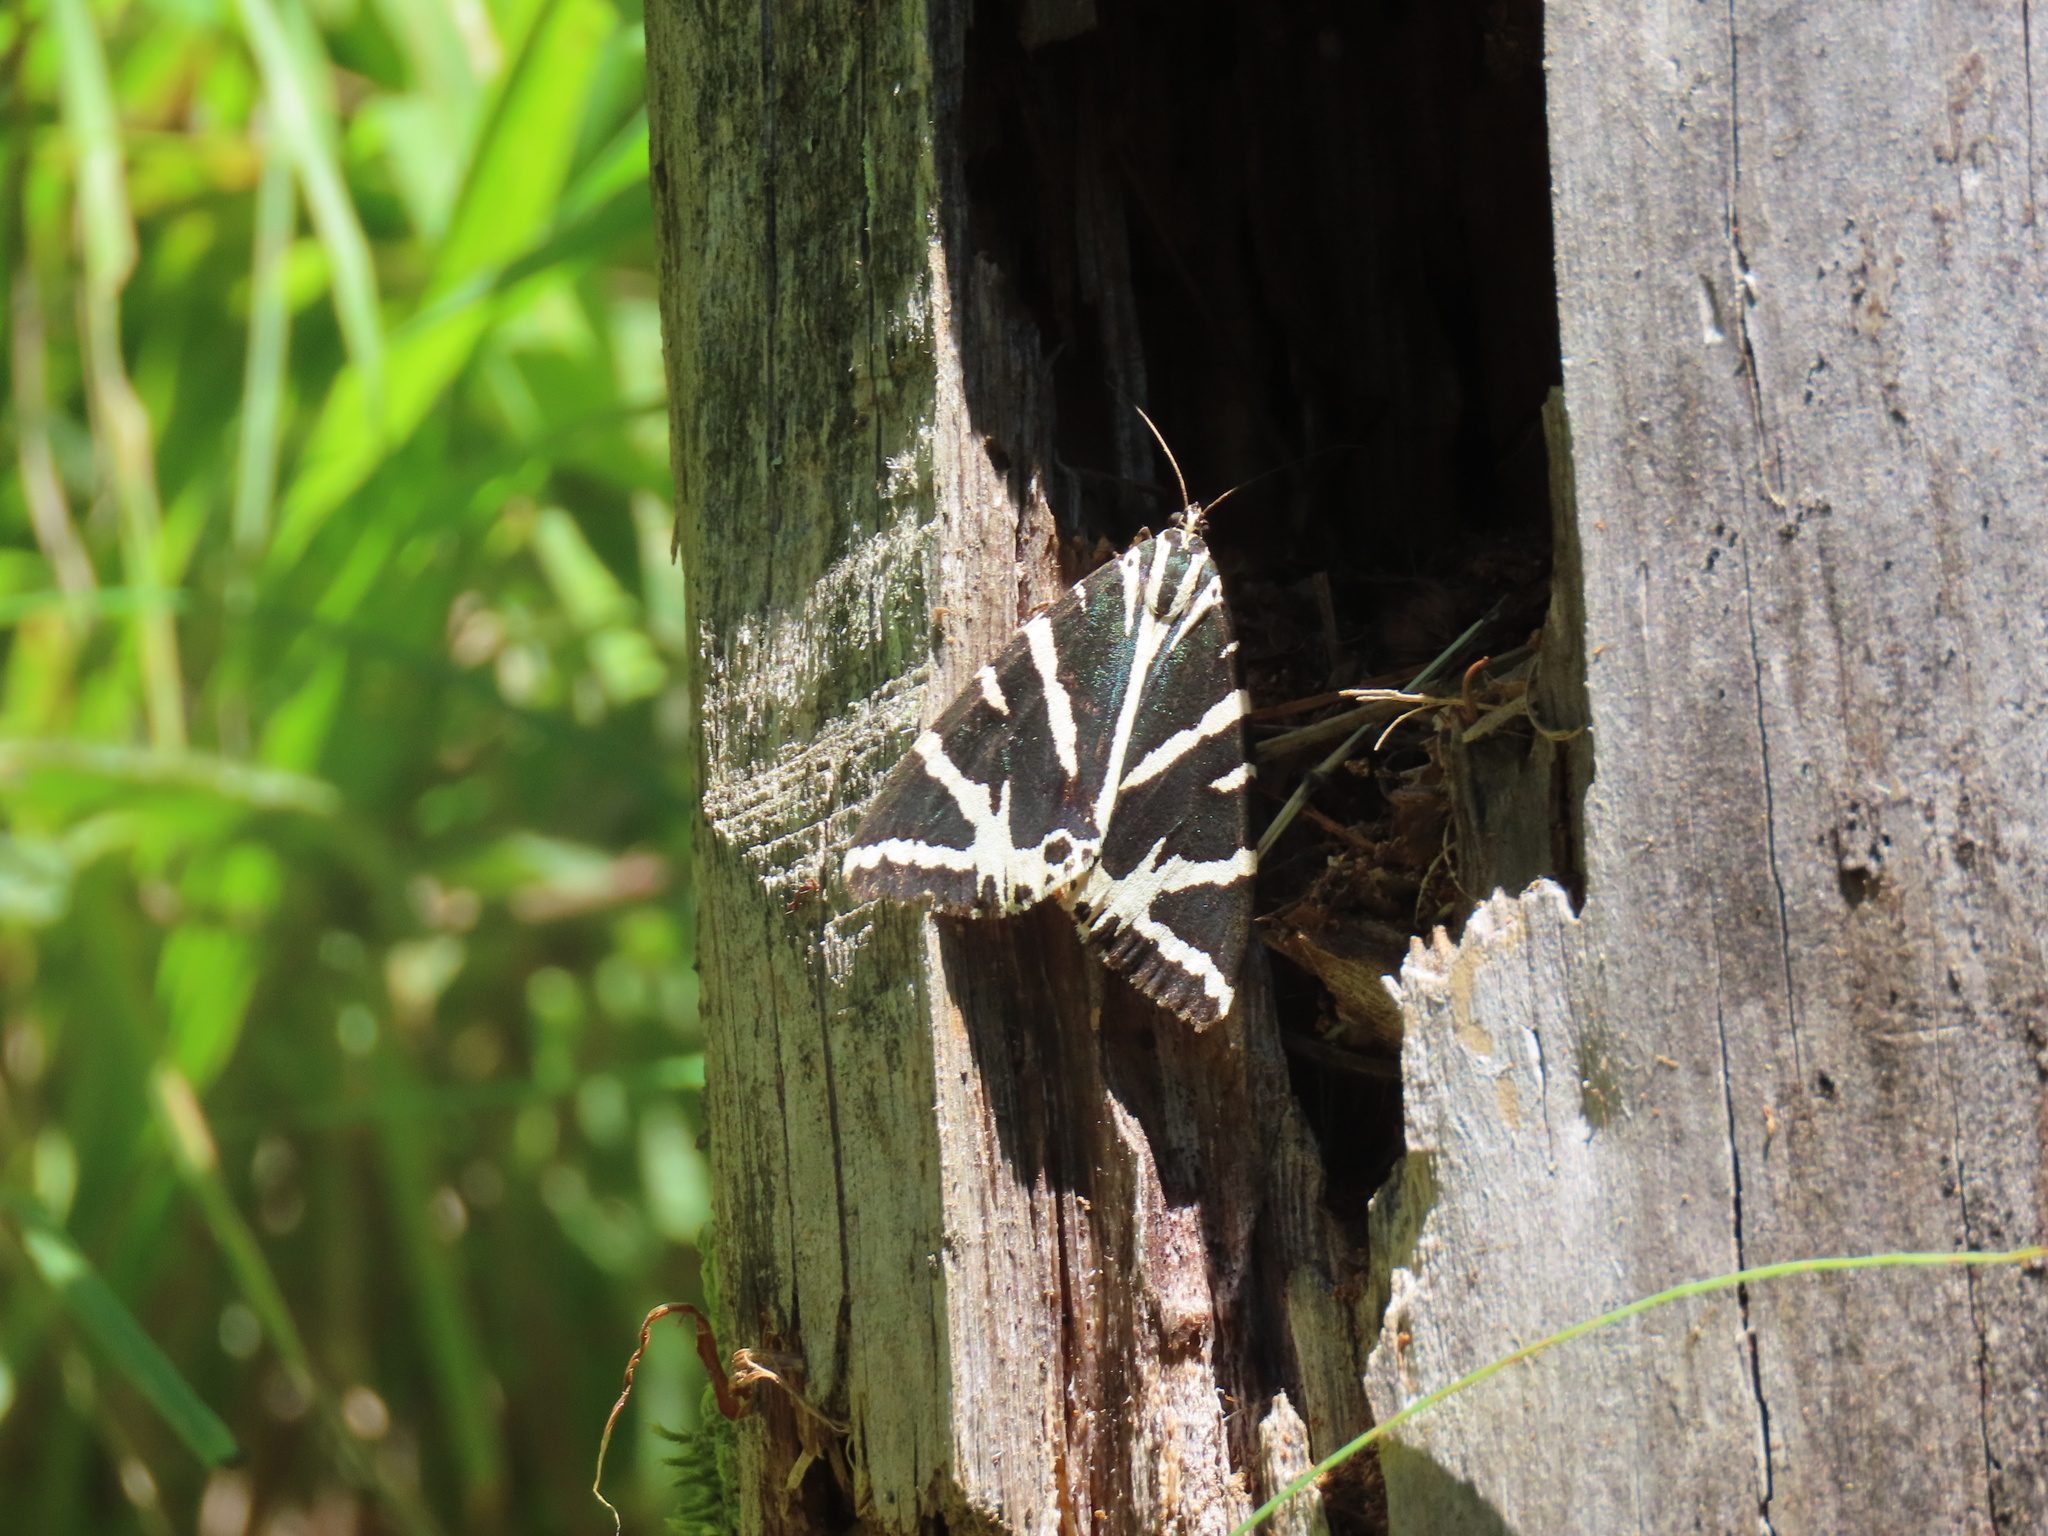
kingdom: Animalia
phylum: Arthropoda
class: Insecta
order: Lepidoptera
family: Erebidae
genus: Euplagia
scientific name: Euplagia quadripunctaria
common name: Jersey tiger
